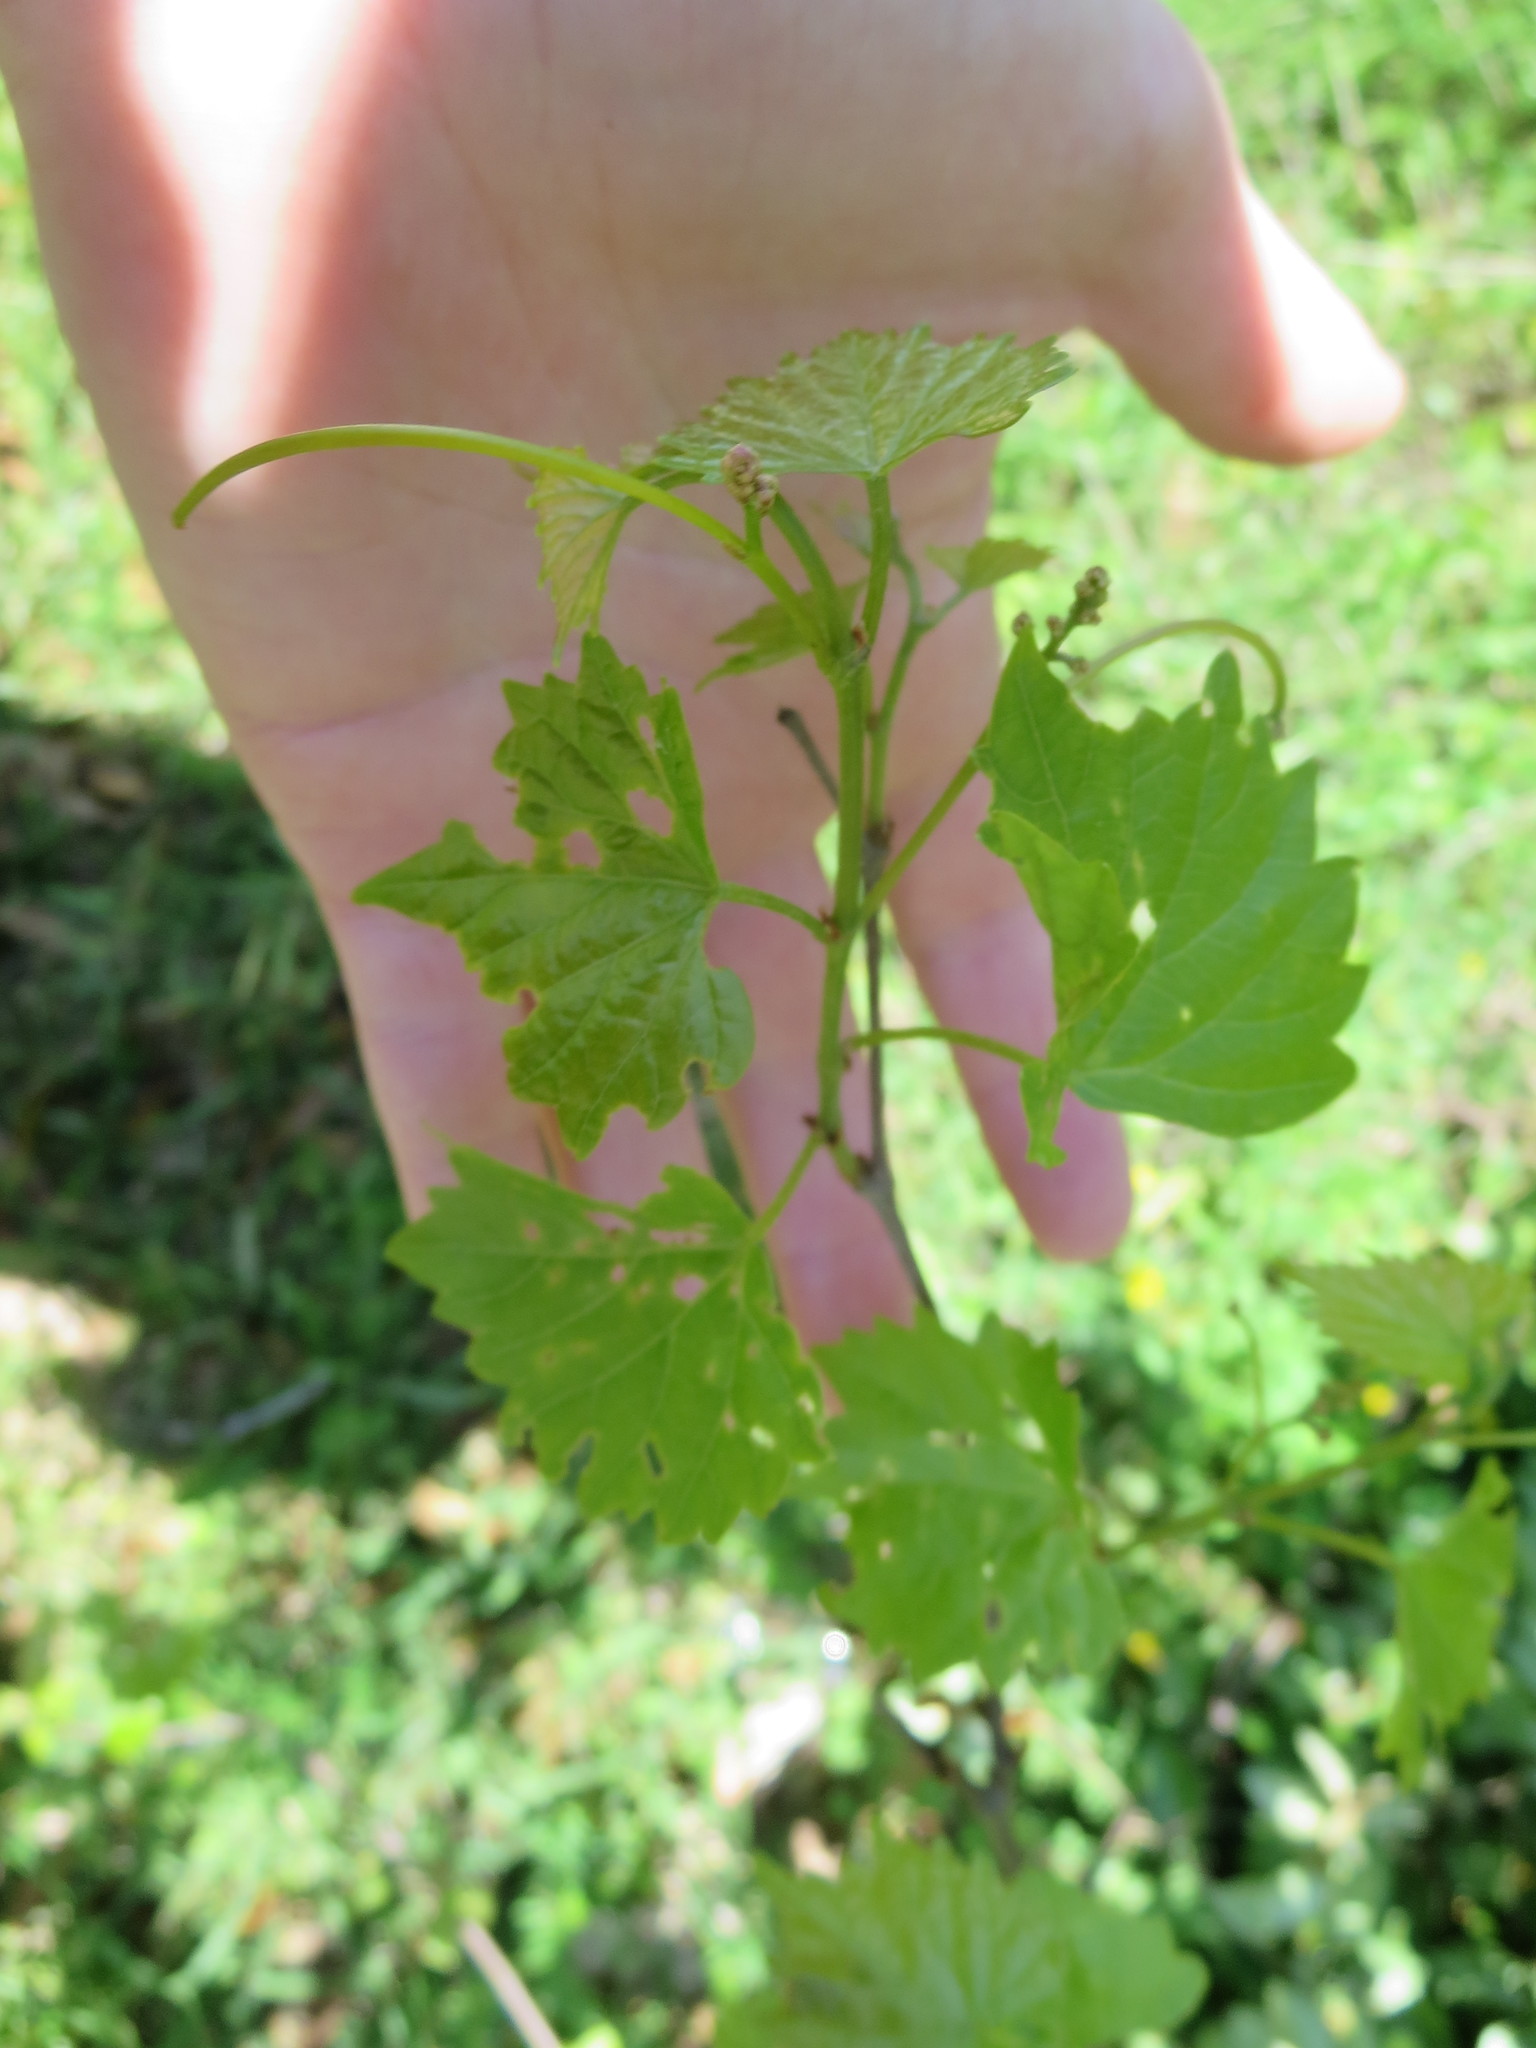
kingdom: Plantae
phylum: Tracheophyta
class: Magnoliopsida
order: Vitales
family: Vitaceae
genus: Vitis
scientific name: Vitis rotundifolia
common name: Muscadine grape
